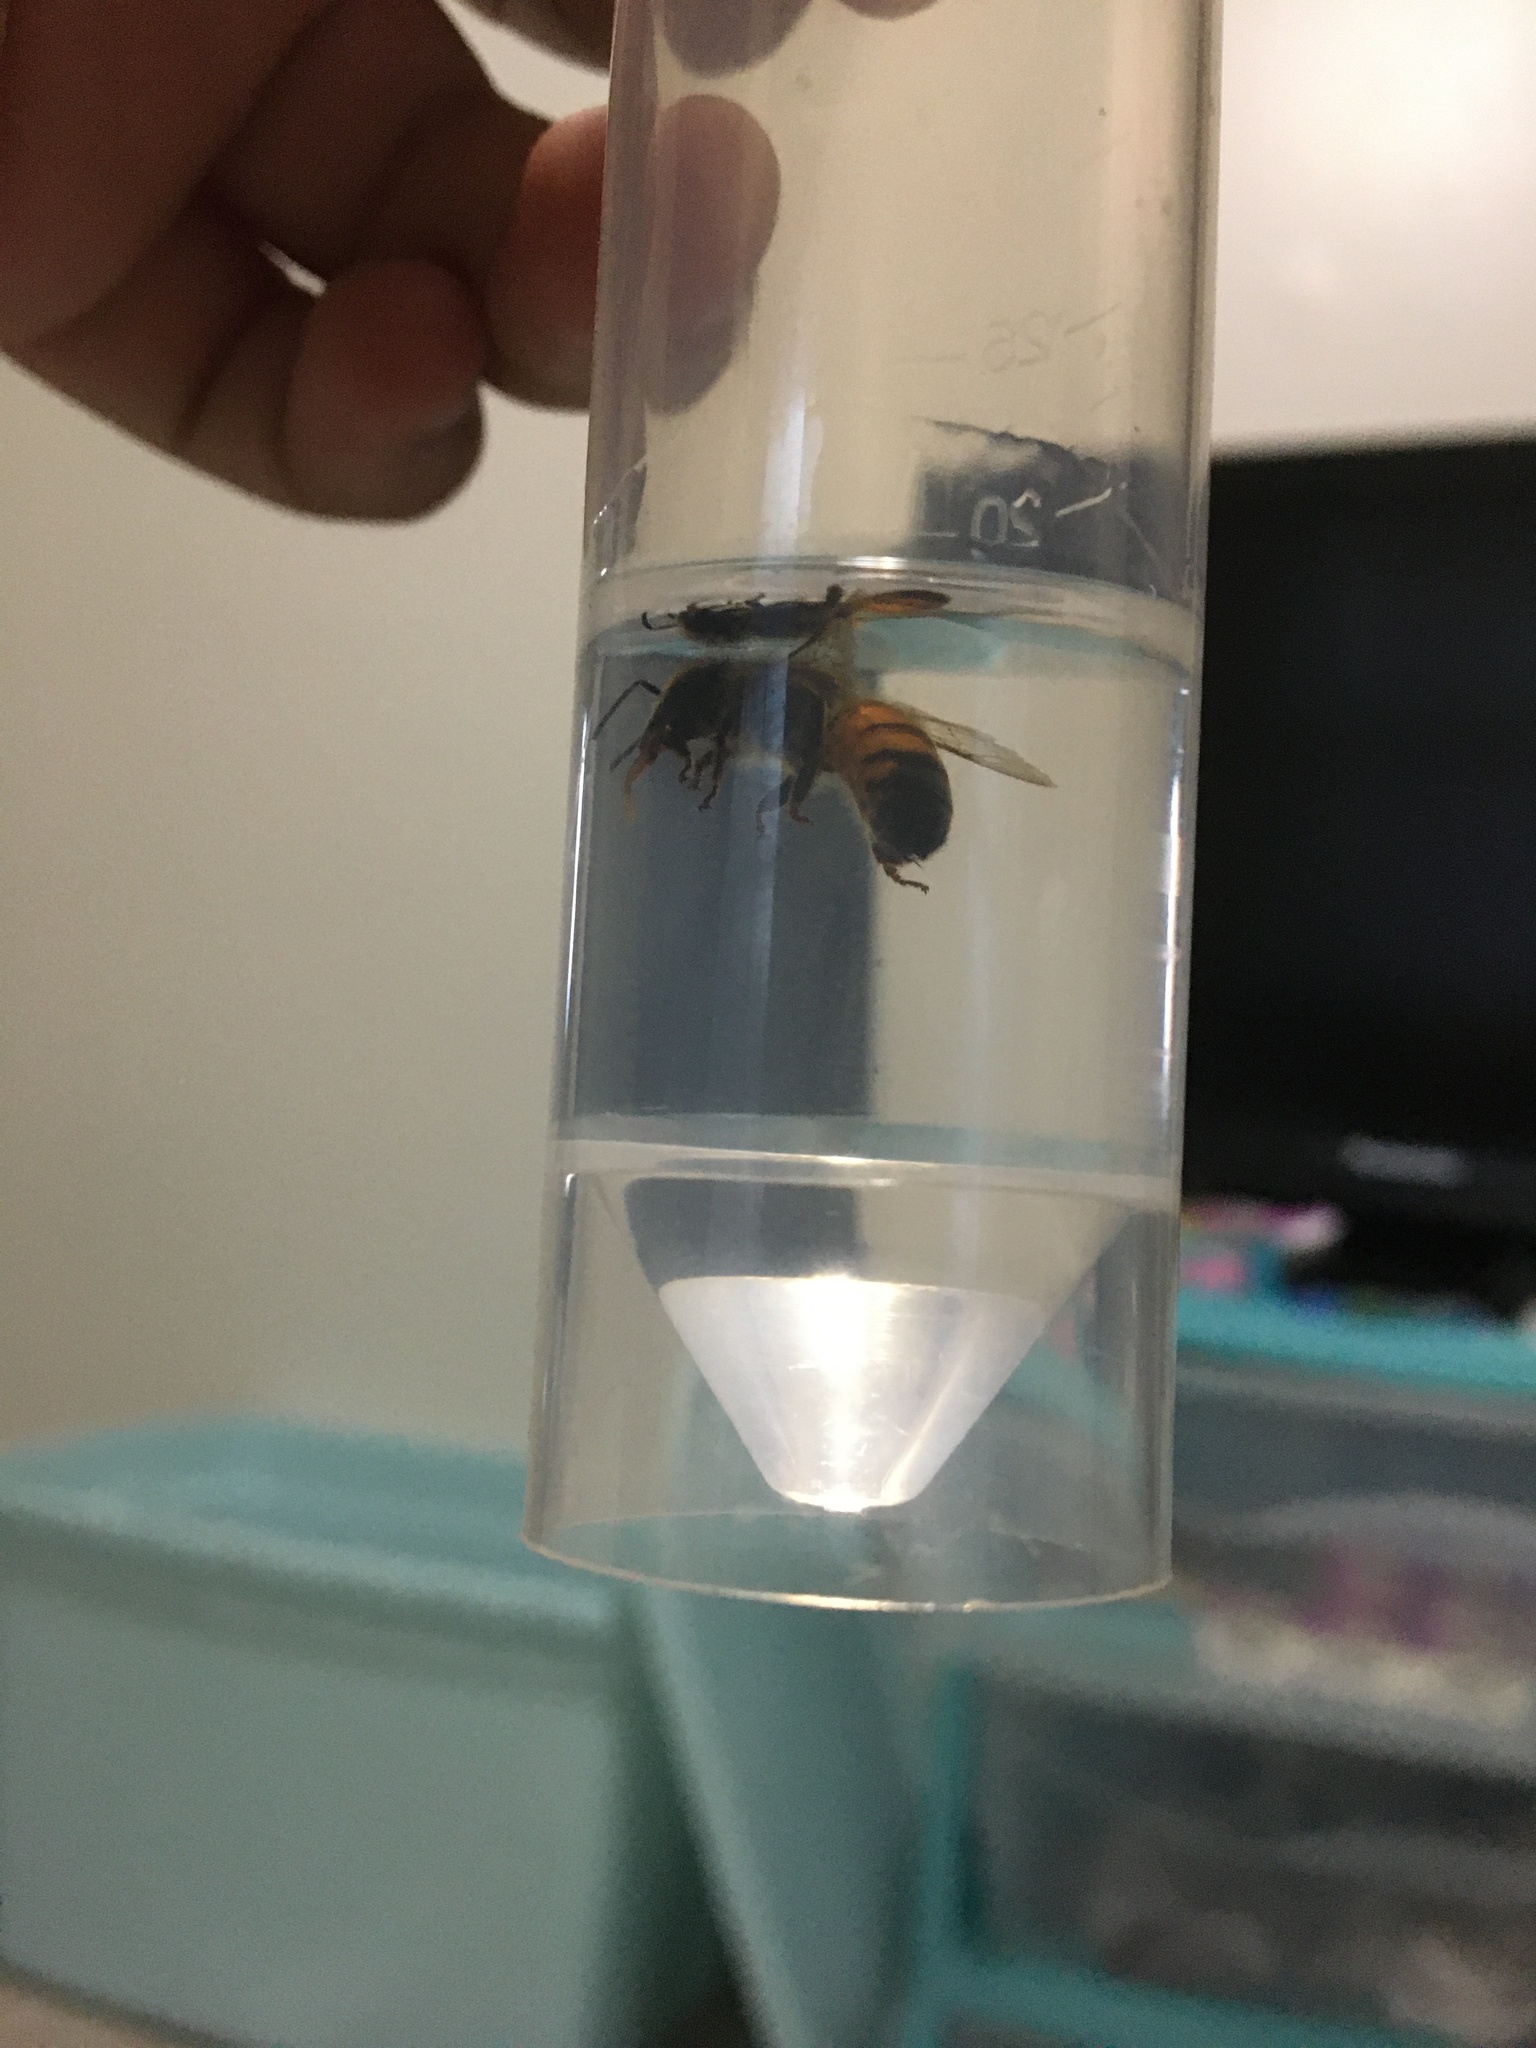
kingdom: Animalia
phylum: Arthropoda
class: Insecta
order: Hymenoptera
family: Apidae
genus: Apis
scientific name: Apis mellifera
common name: Honey bee
